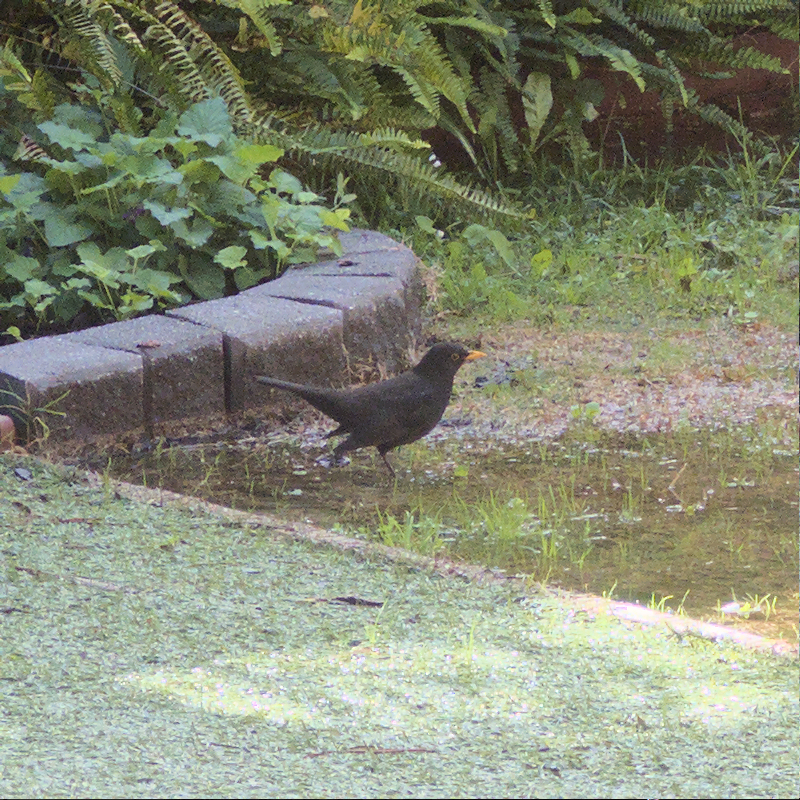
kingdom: Animalia
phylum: Chordata
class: Aves
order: Passeriformes
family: Turdidae
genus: Turdus
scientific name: Turdus merula
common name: Common blackbird
